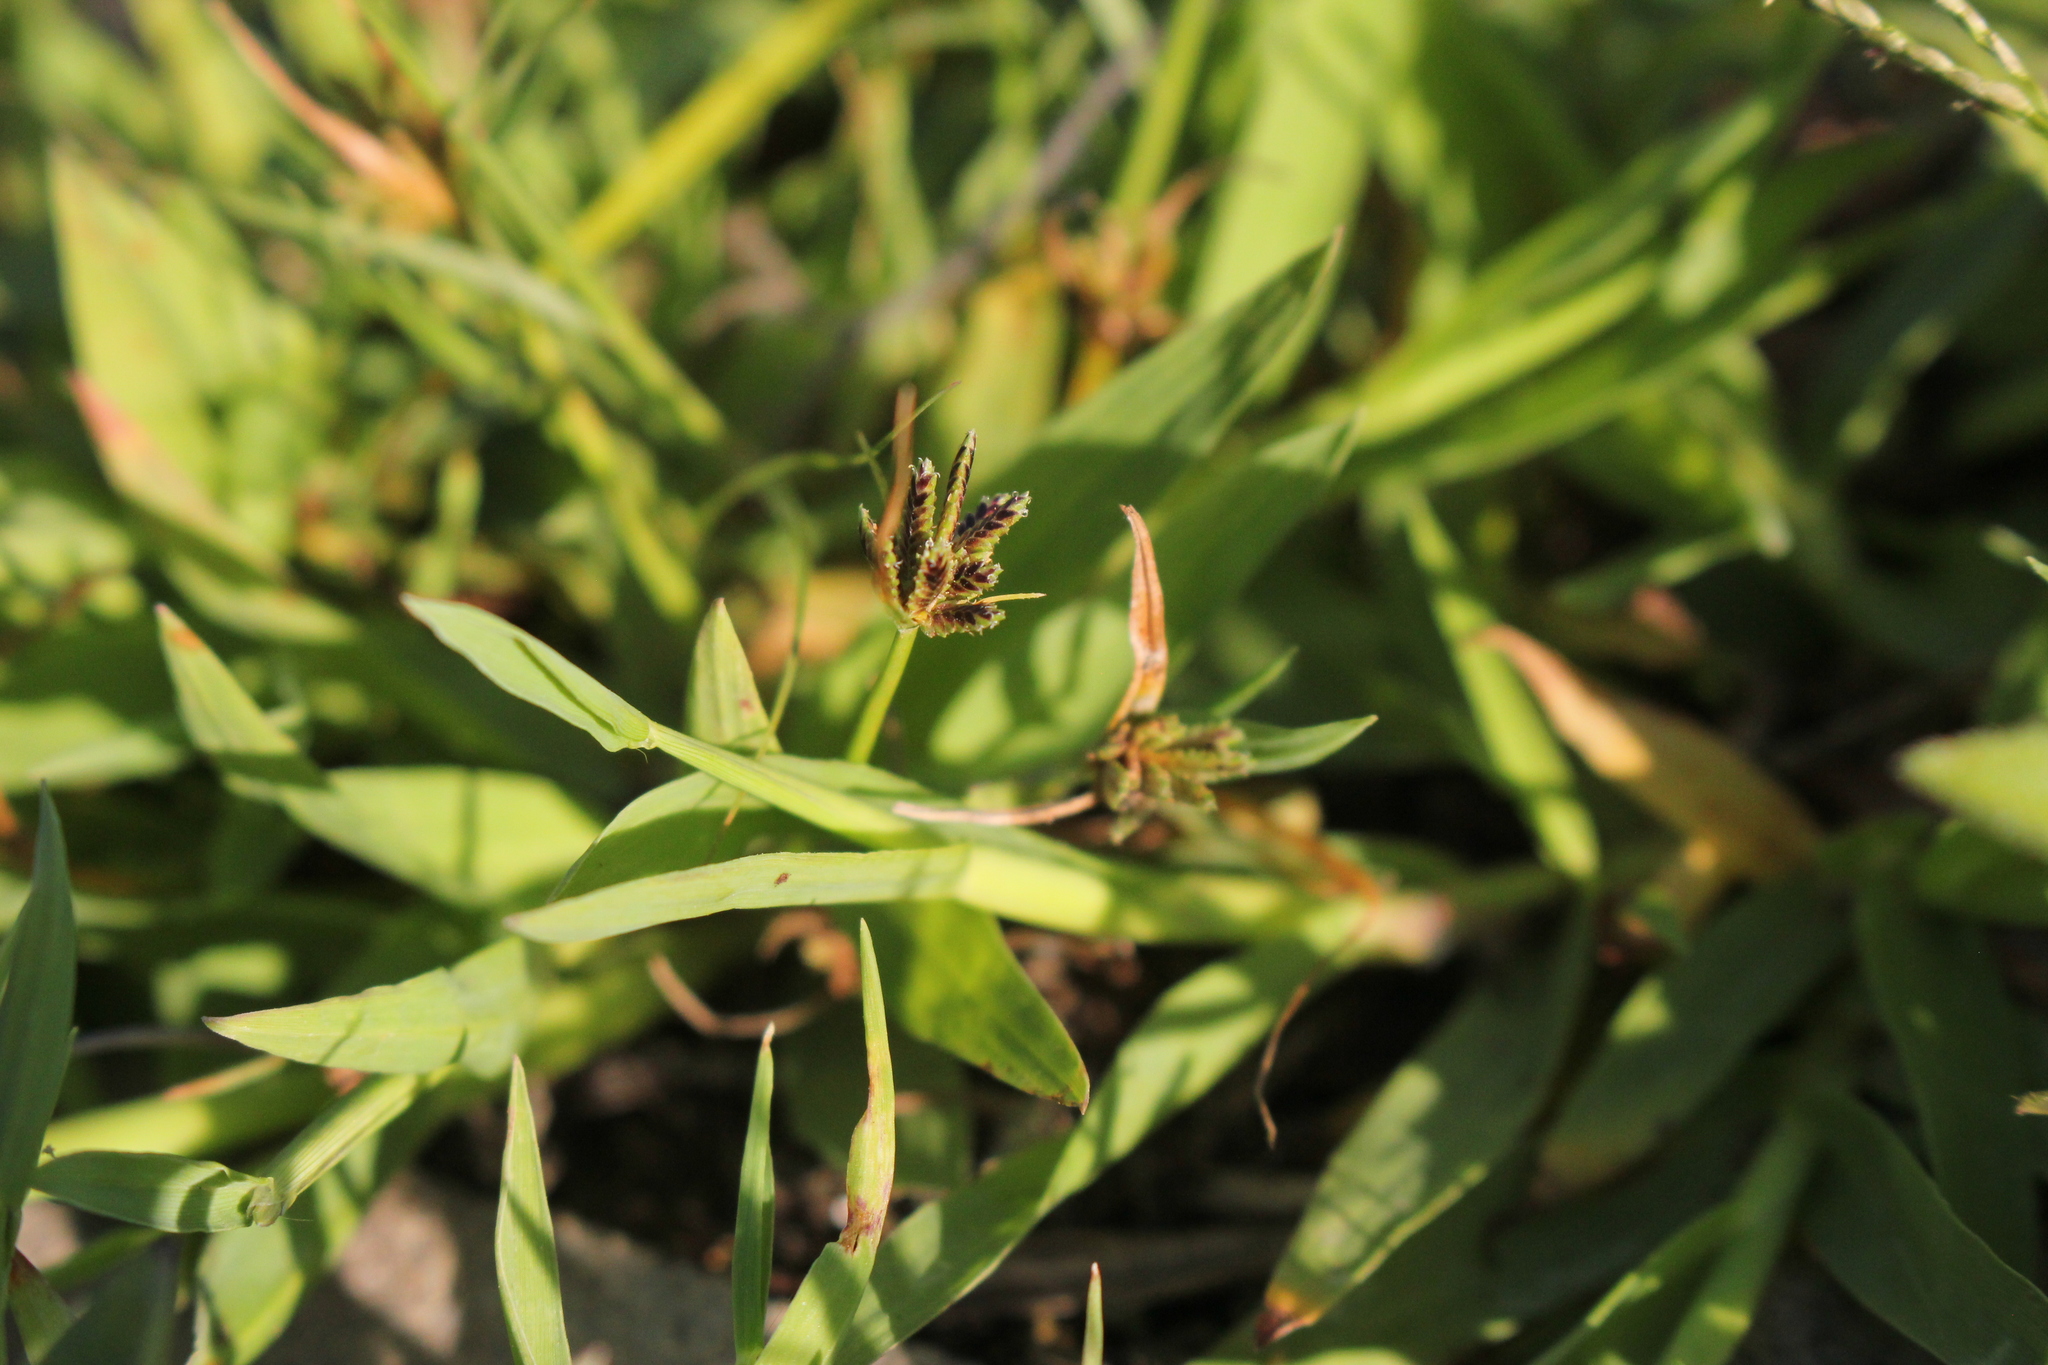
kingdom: Plantae
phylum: Tracheophyta
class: Liliopsida
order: Poales
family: Cyperaceae
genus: Cyperus
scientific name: Cyperus fuscus
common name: Brown galingale
